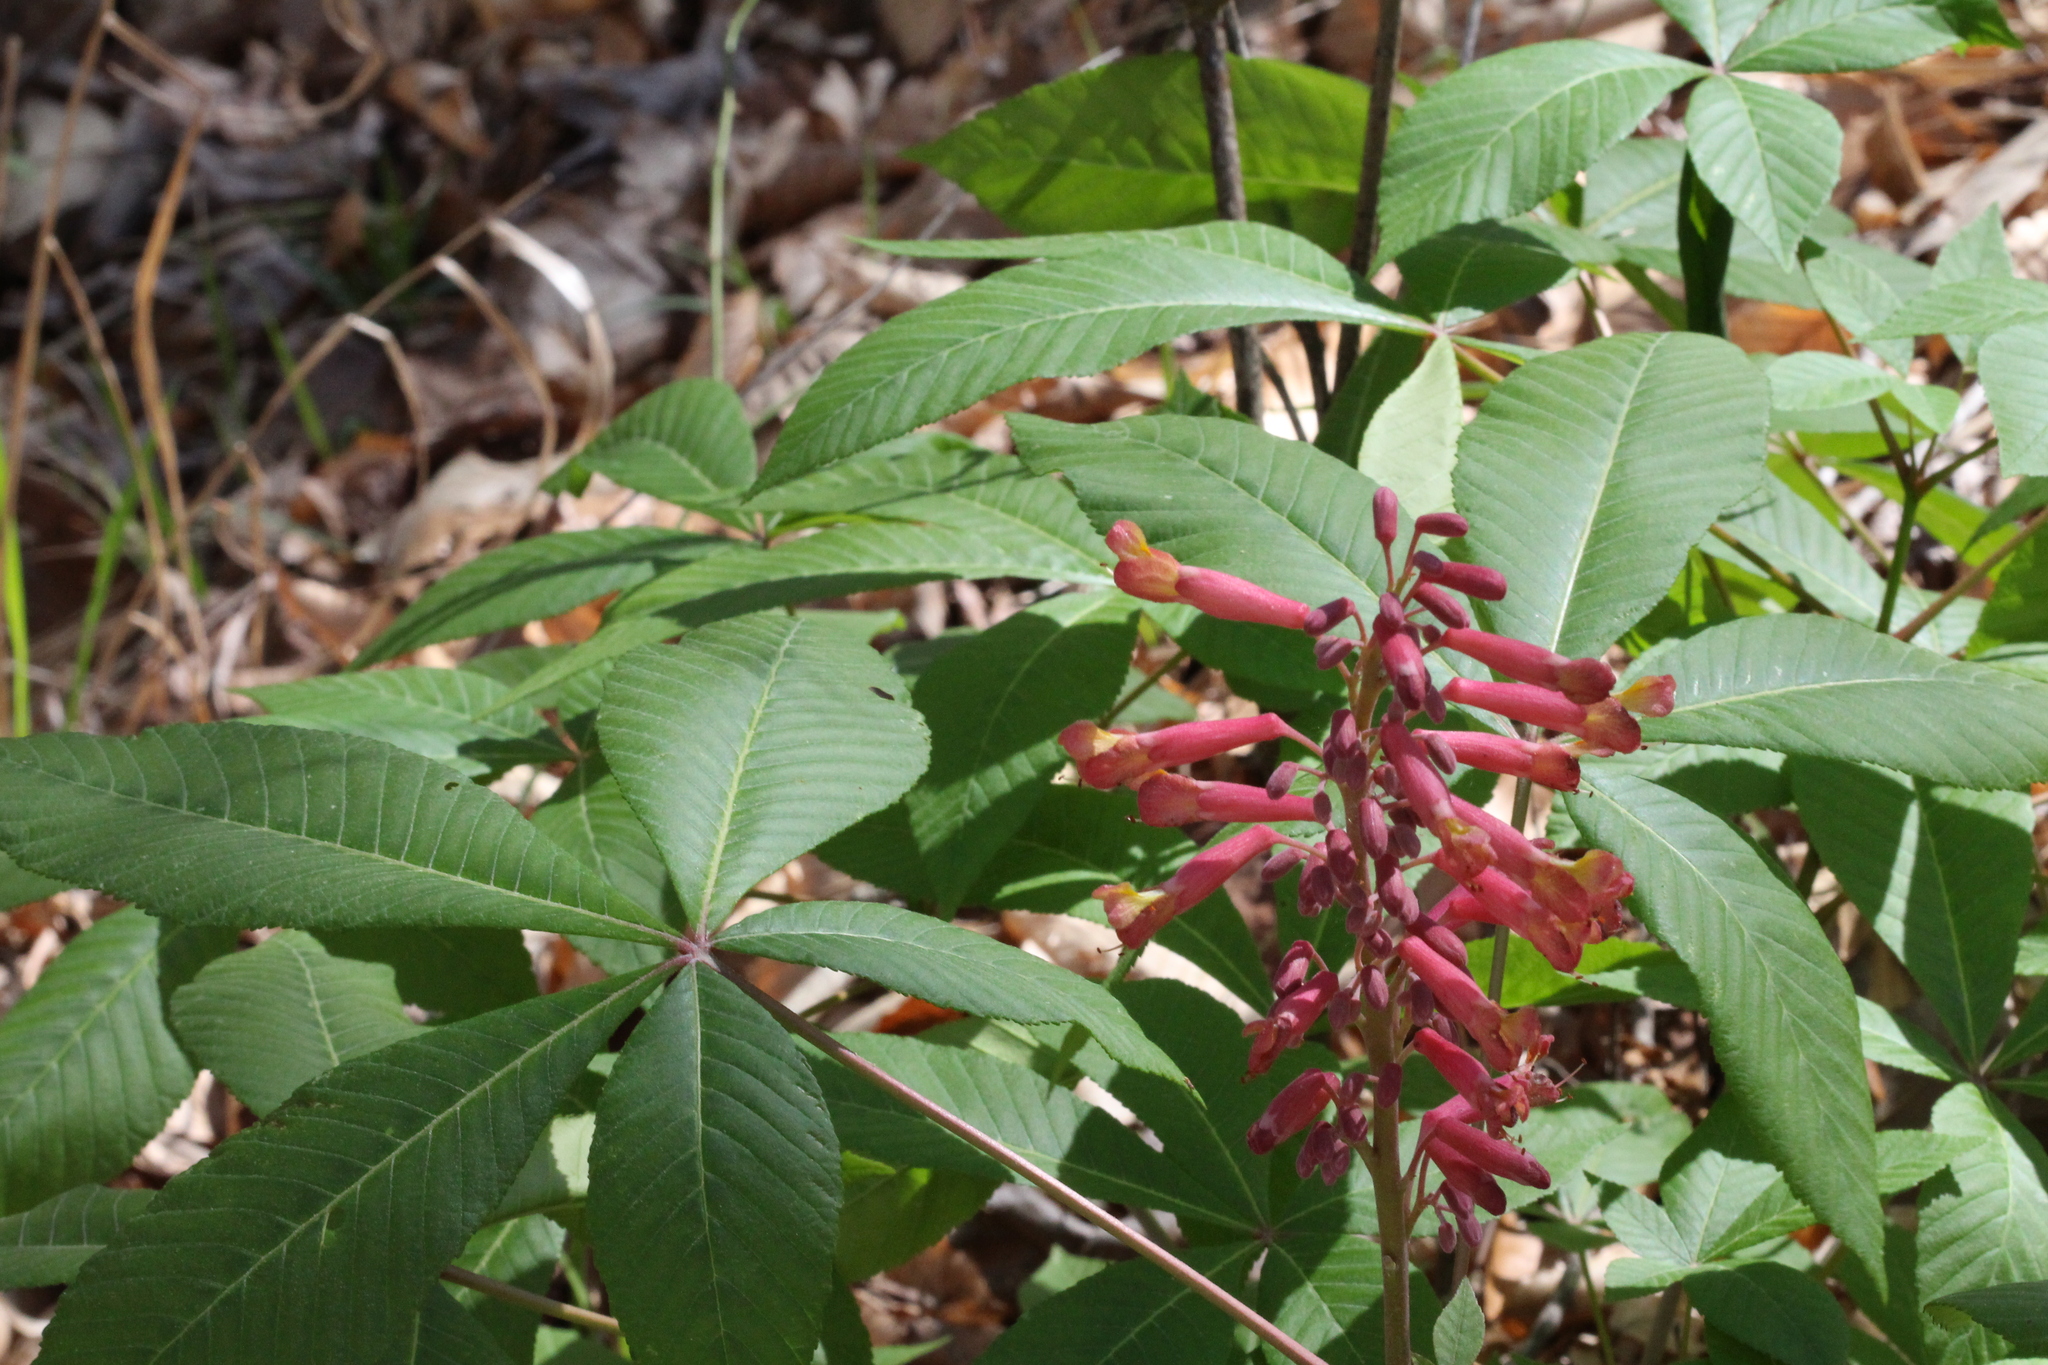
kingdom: Plantae
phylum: Tracheophyta
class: Magnoliopsida
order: Sapindales
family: Sapindaceae
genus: Aesculus
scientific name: Aesculus pavia
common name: Red buckeye
